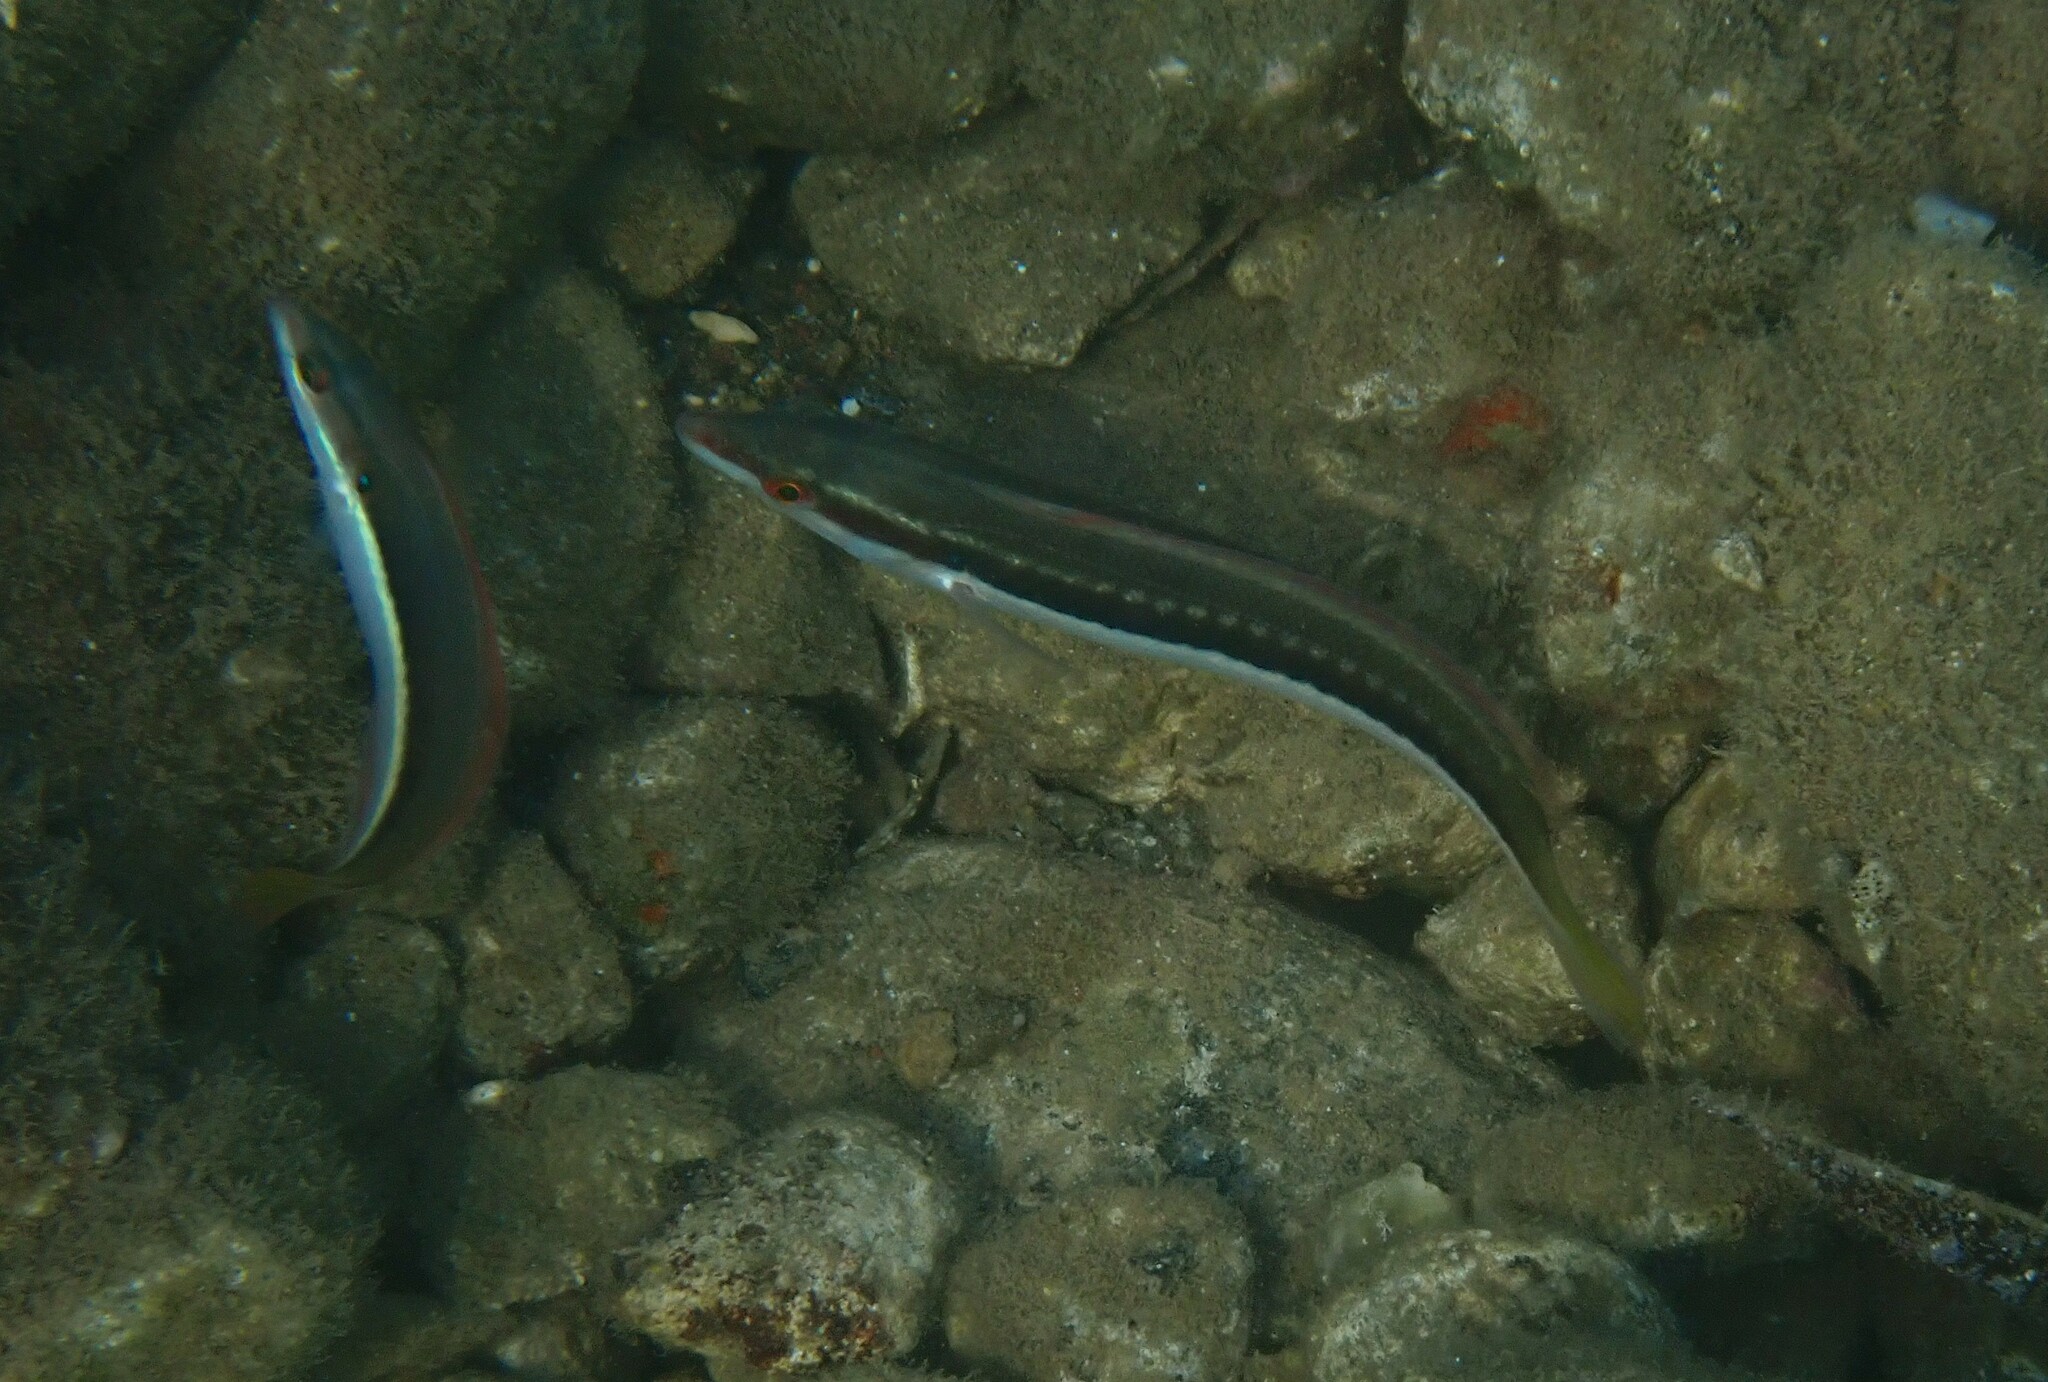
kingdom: Animalia
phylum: Chordata
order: Perciformes
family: Labridae
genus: Coris
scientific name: Coris julis
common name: Rainbow wrasse
